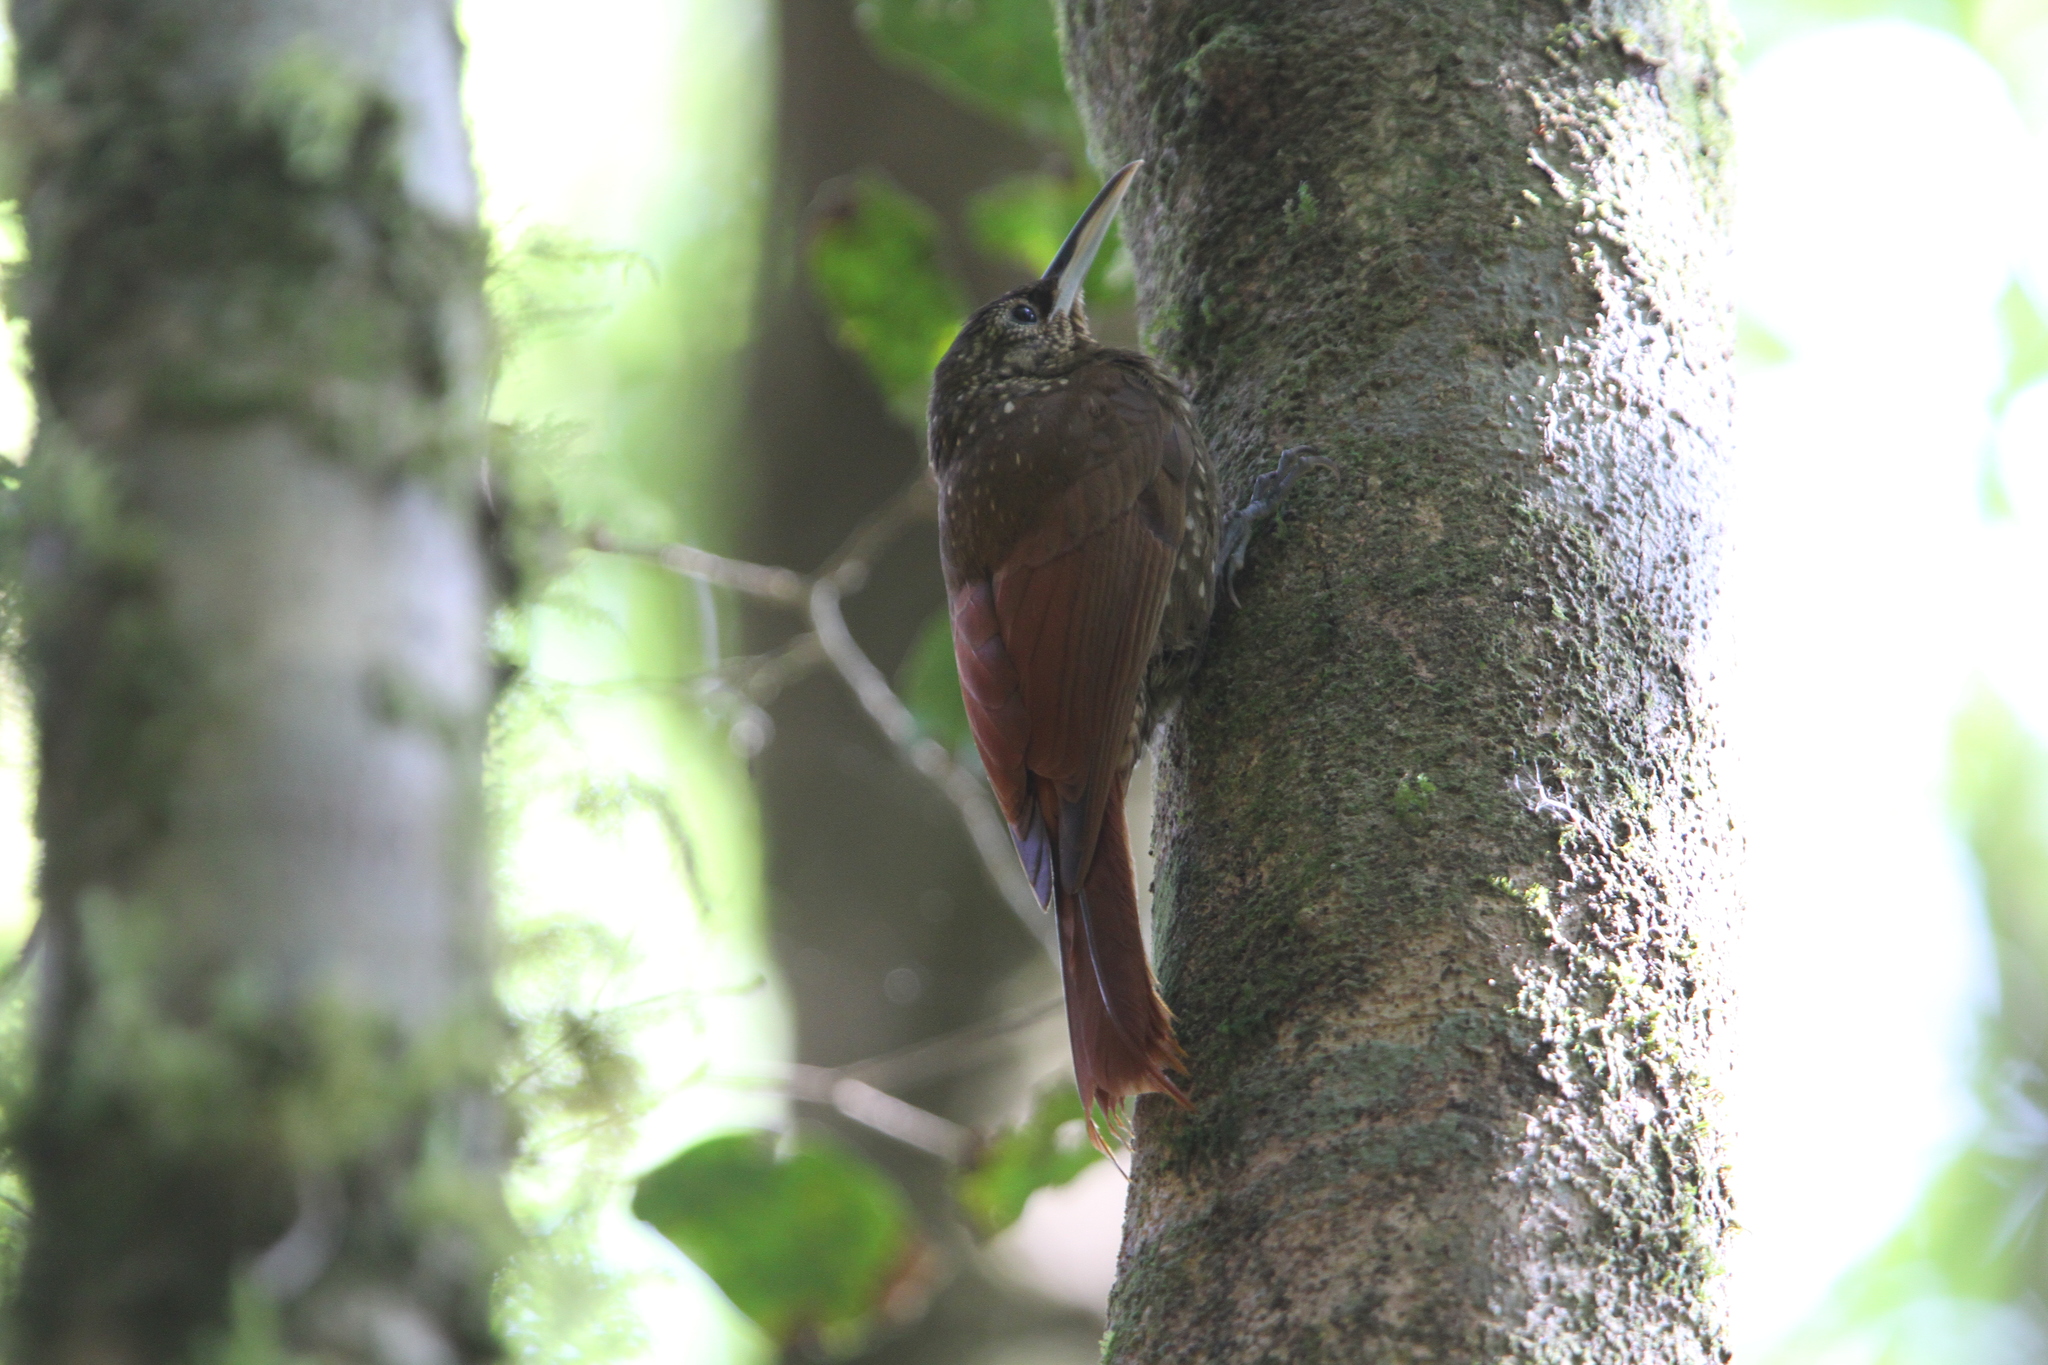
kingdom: Animalia
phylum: Chordata
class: Aves
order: Passeriformes
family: Furnariidae
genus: Xiphorhynchus
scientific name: Xiphorhynchus erythropygius
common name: Spotted woodcreeper
